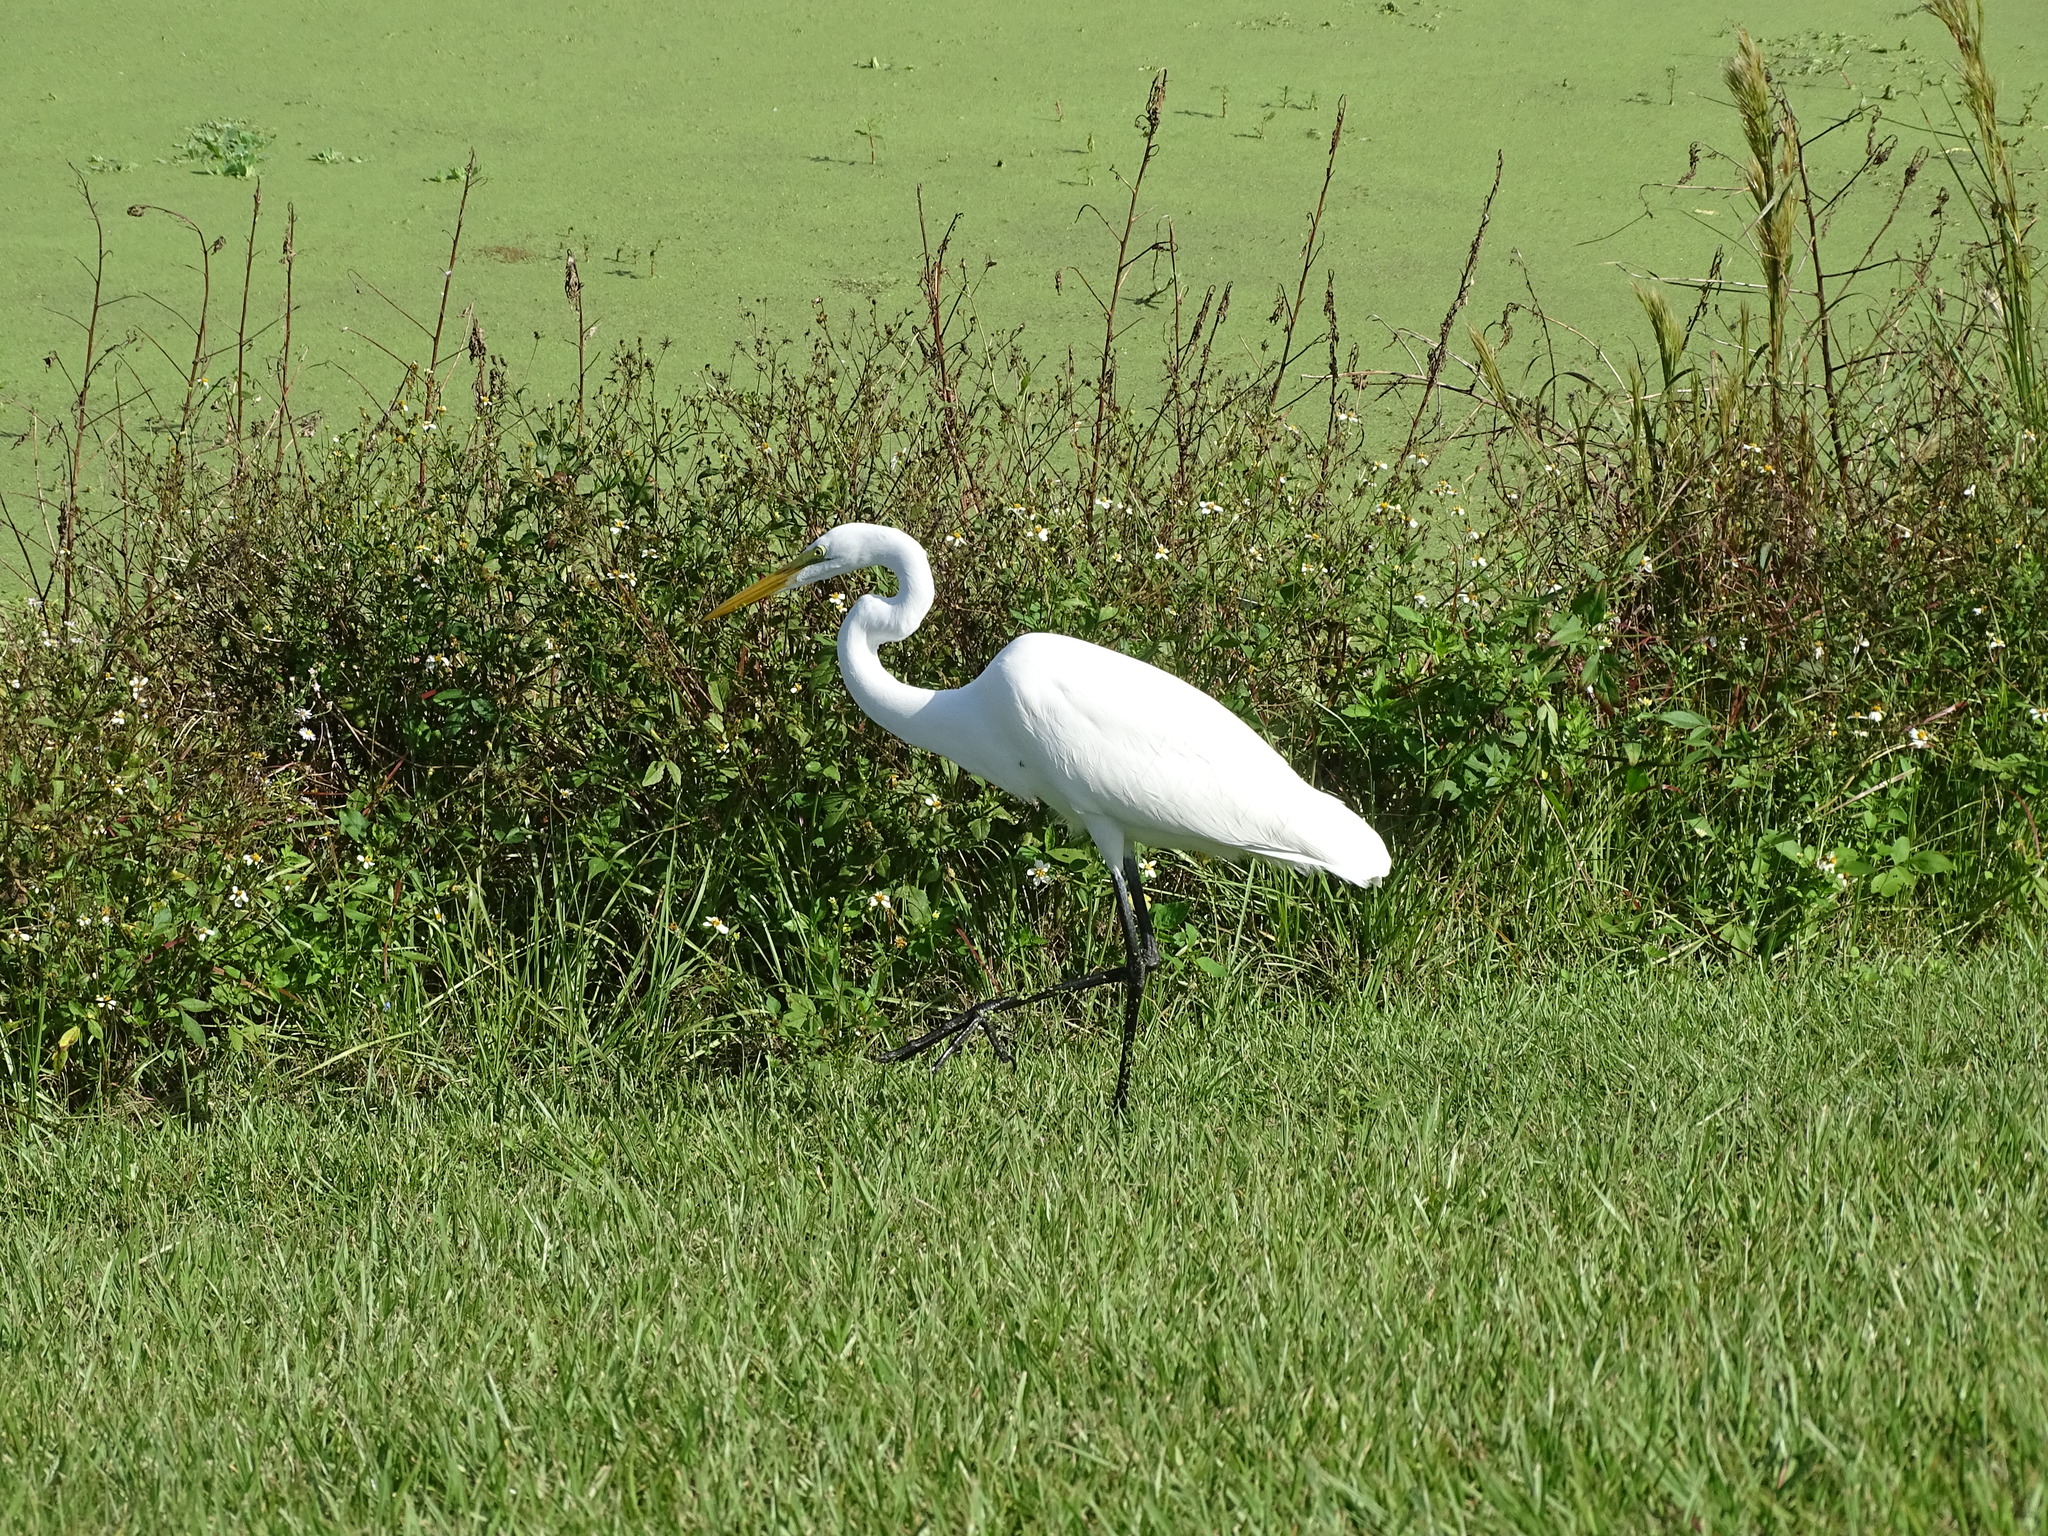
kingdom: Animalia
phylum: Chordata
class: Aves
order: Pelecaniformes
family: Ardeidae
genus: Ardea
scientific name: Ardea alba
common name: Great egret
